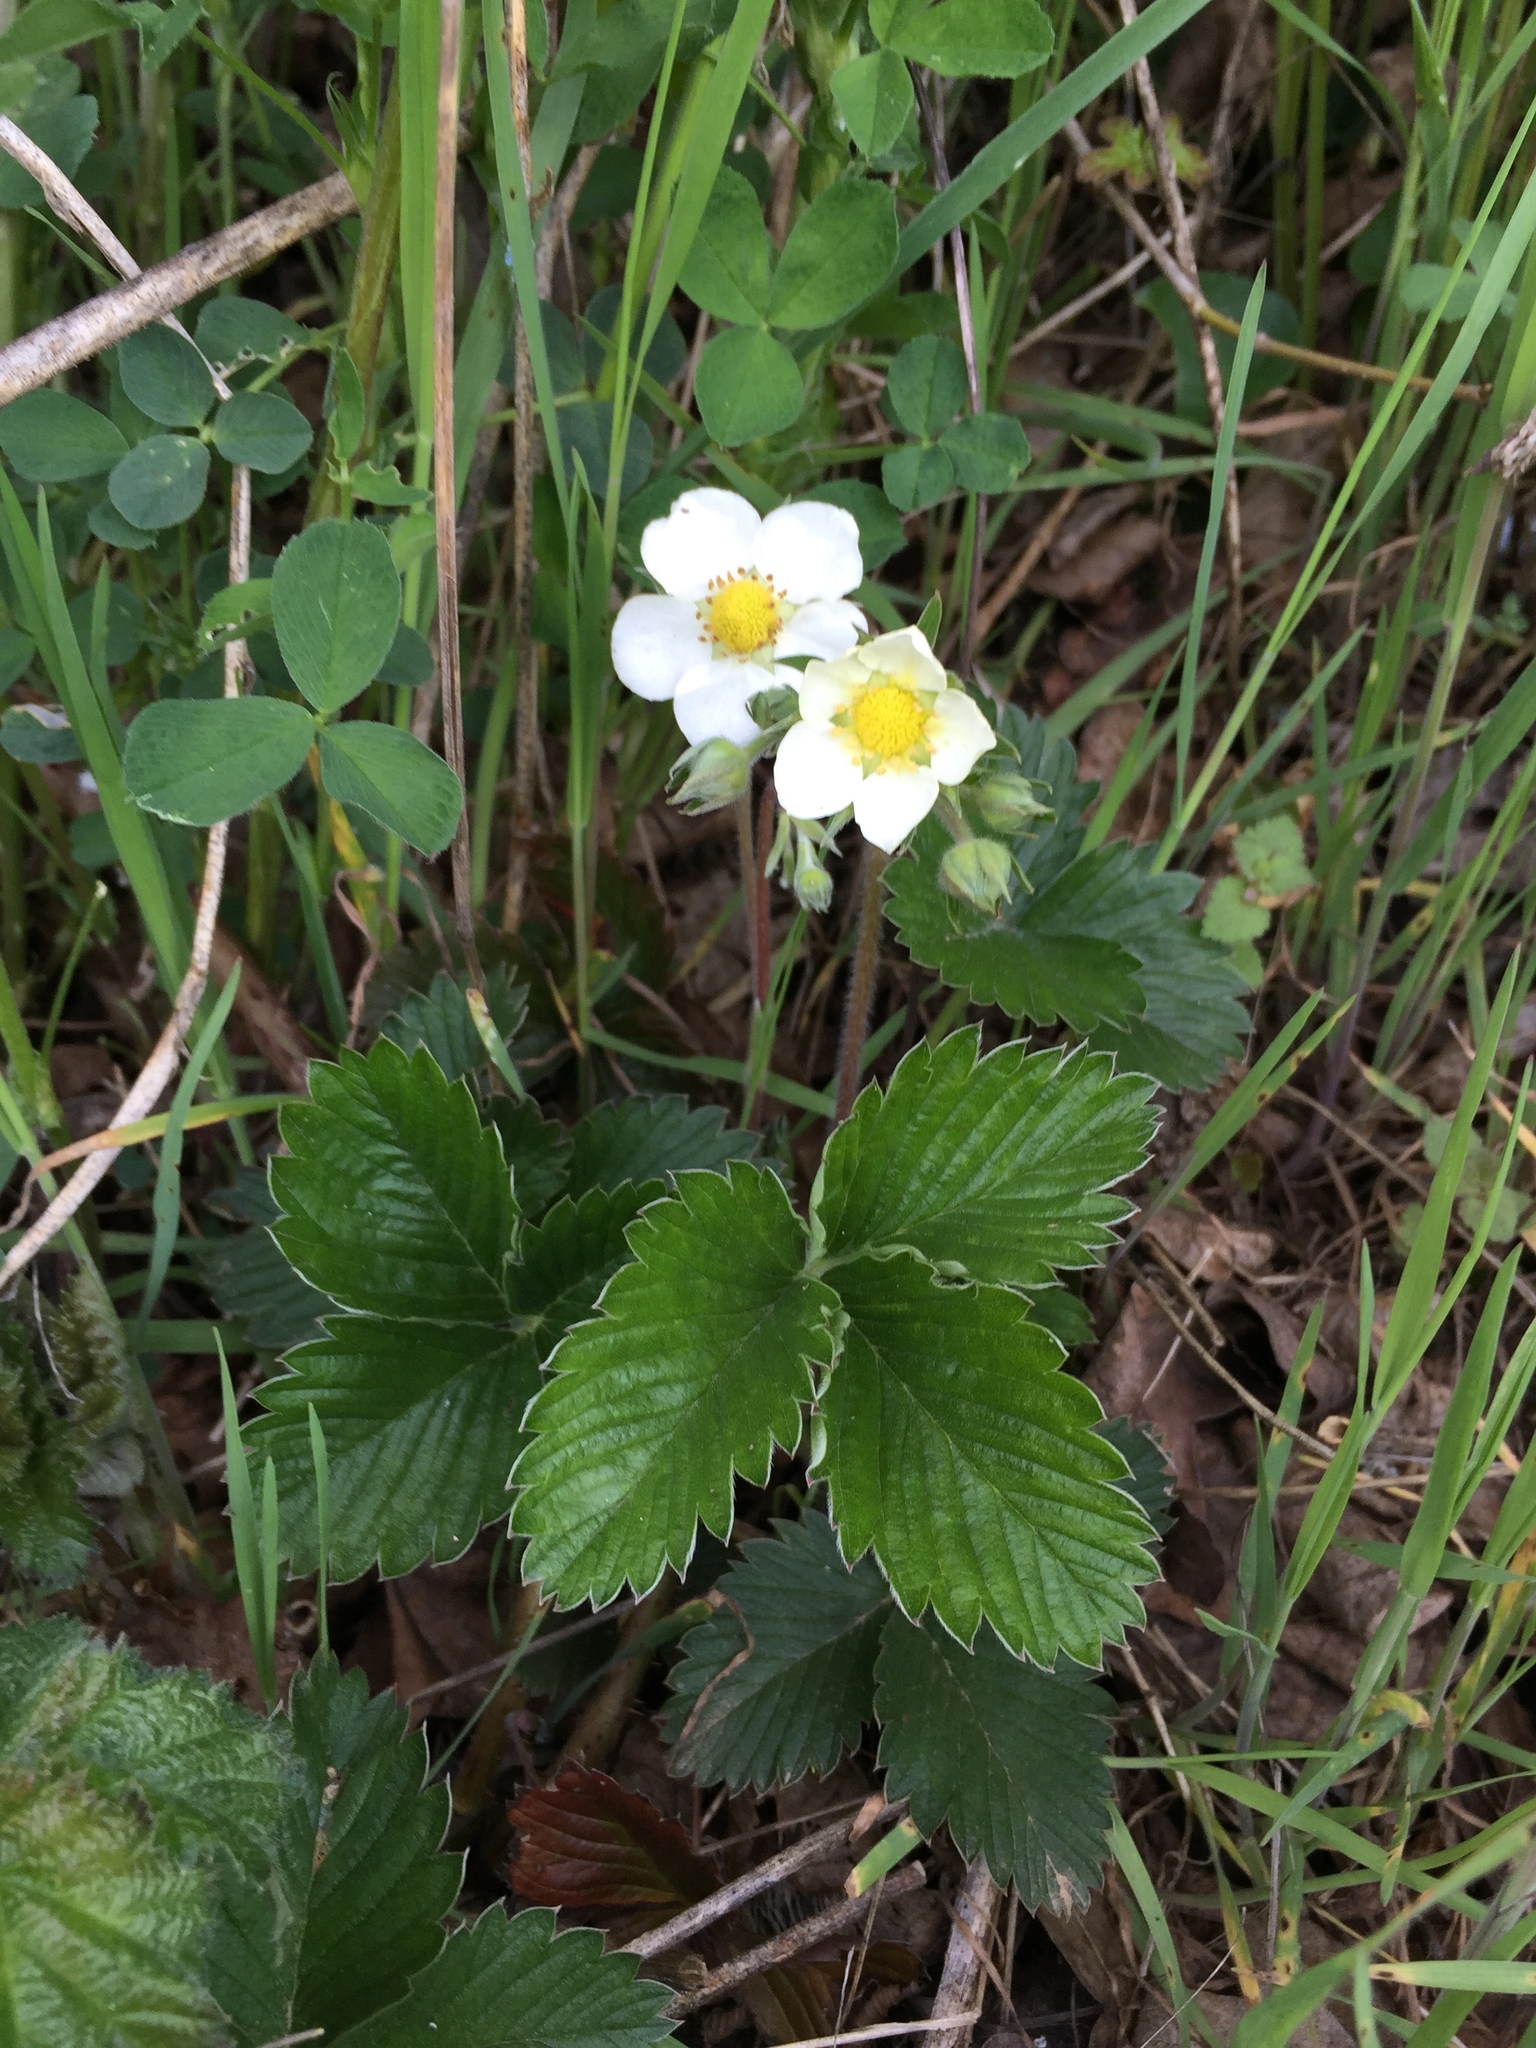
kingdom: Plantae
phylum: Tracheophyta
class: Magnoliopsida
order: Rosales
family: Rosaceae
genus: Fragaria
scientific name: Fragaria vesca
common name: Wild strawberry
